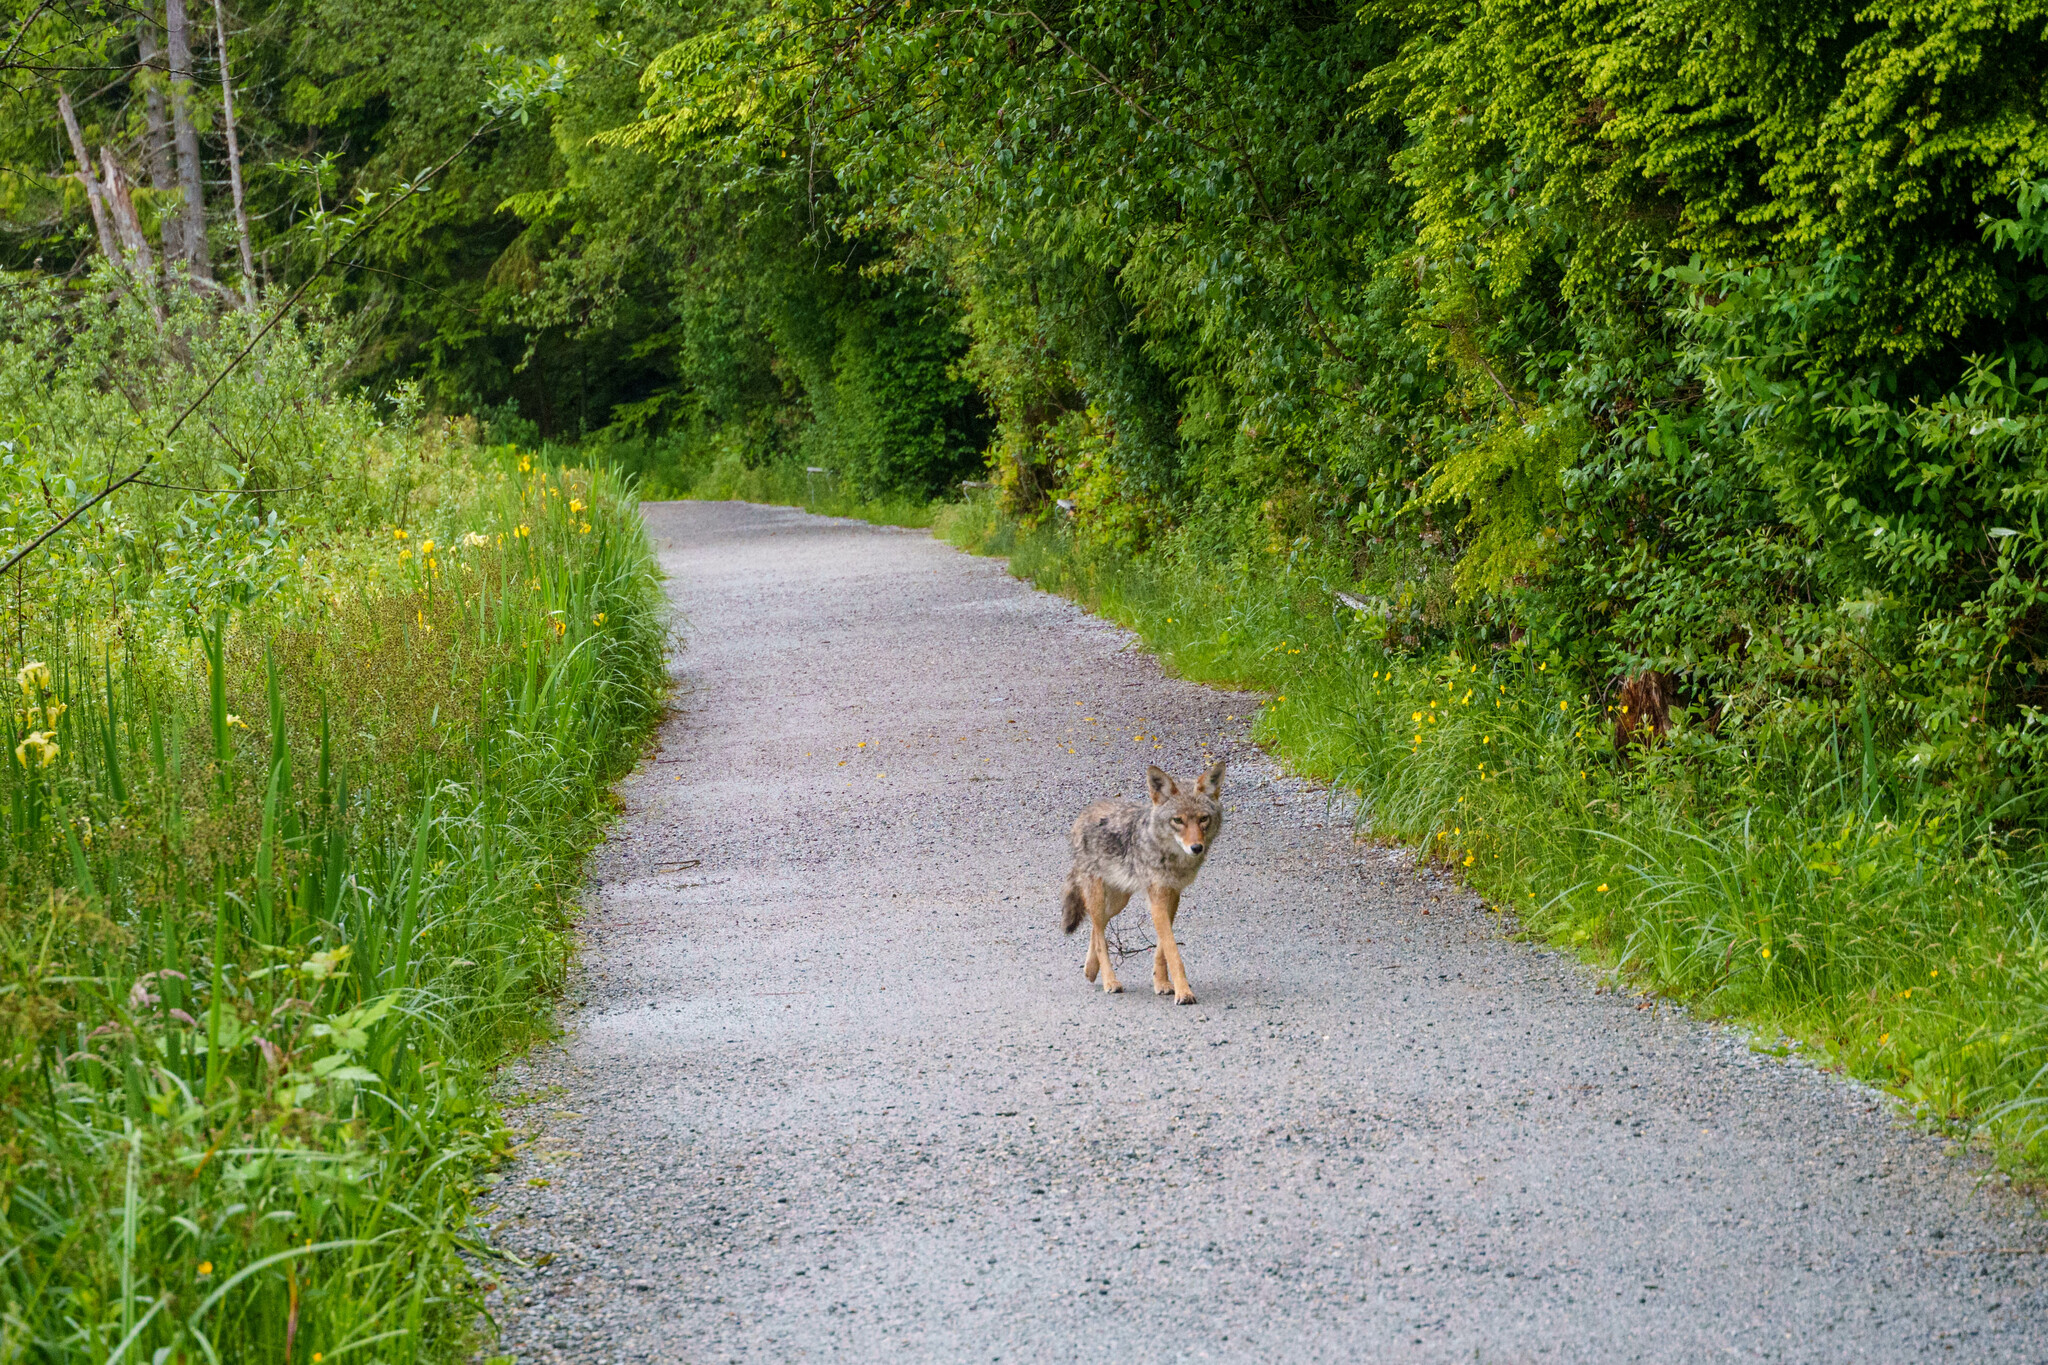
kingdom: Animalia
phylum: Chordata
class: Mammalia
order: Carnivora
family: Canidae
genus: Canis
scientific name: Canis latrans
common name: Coyote
